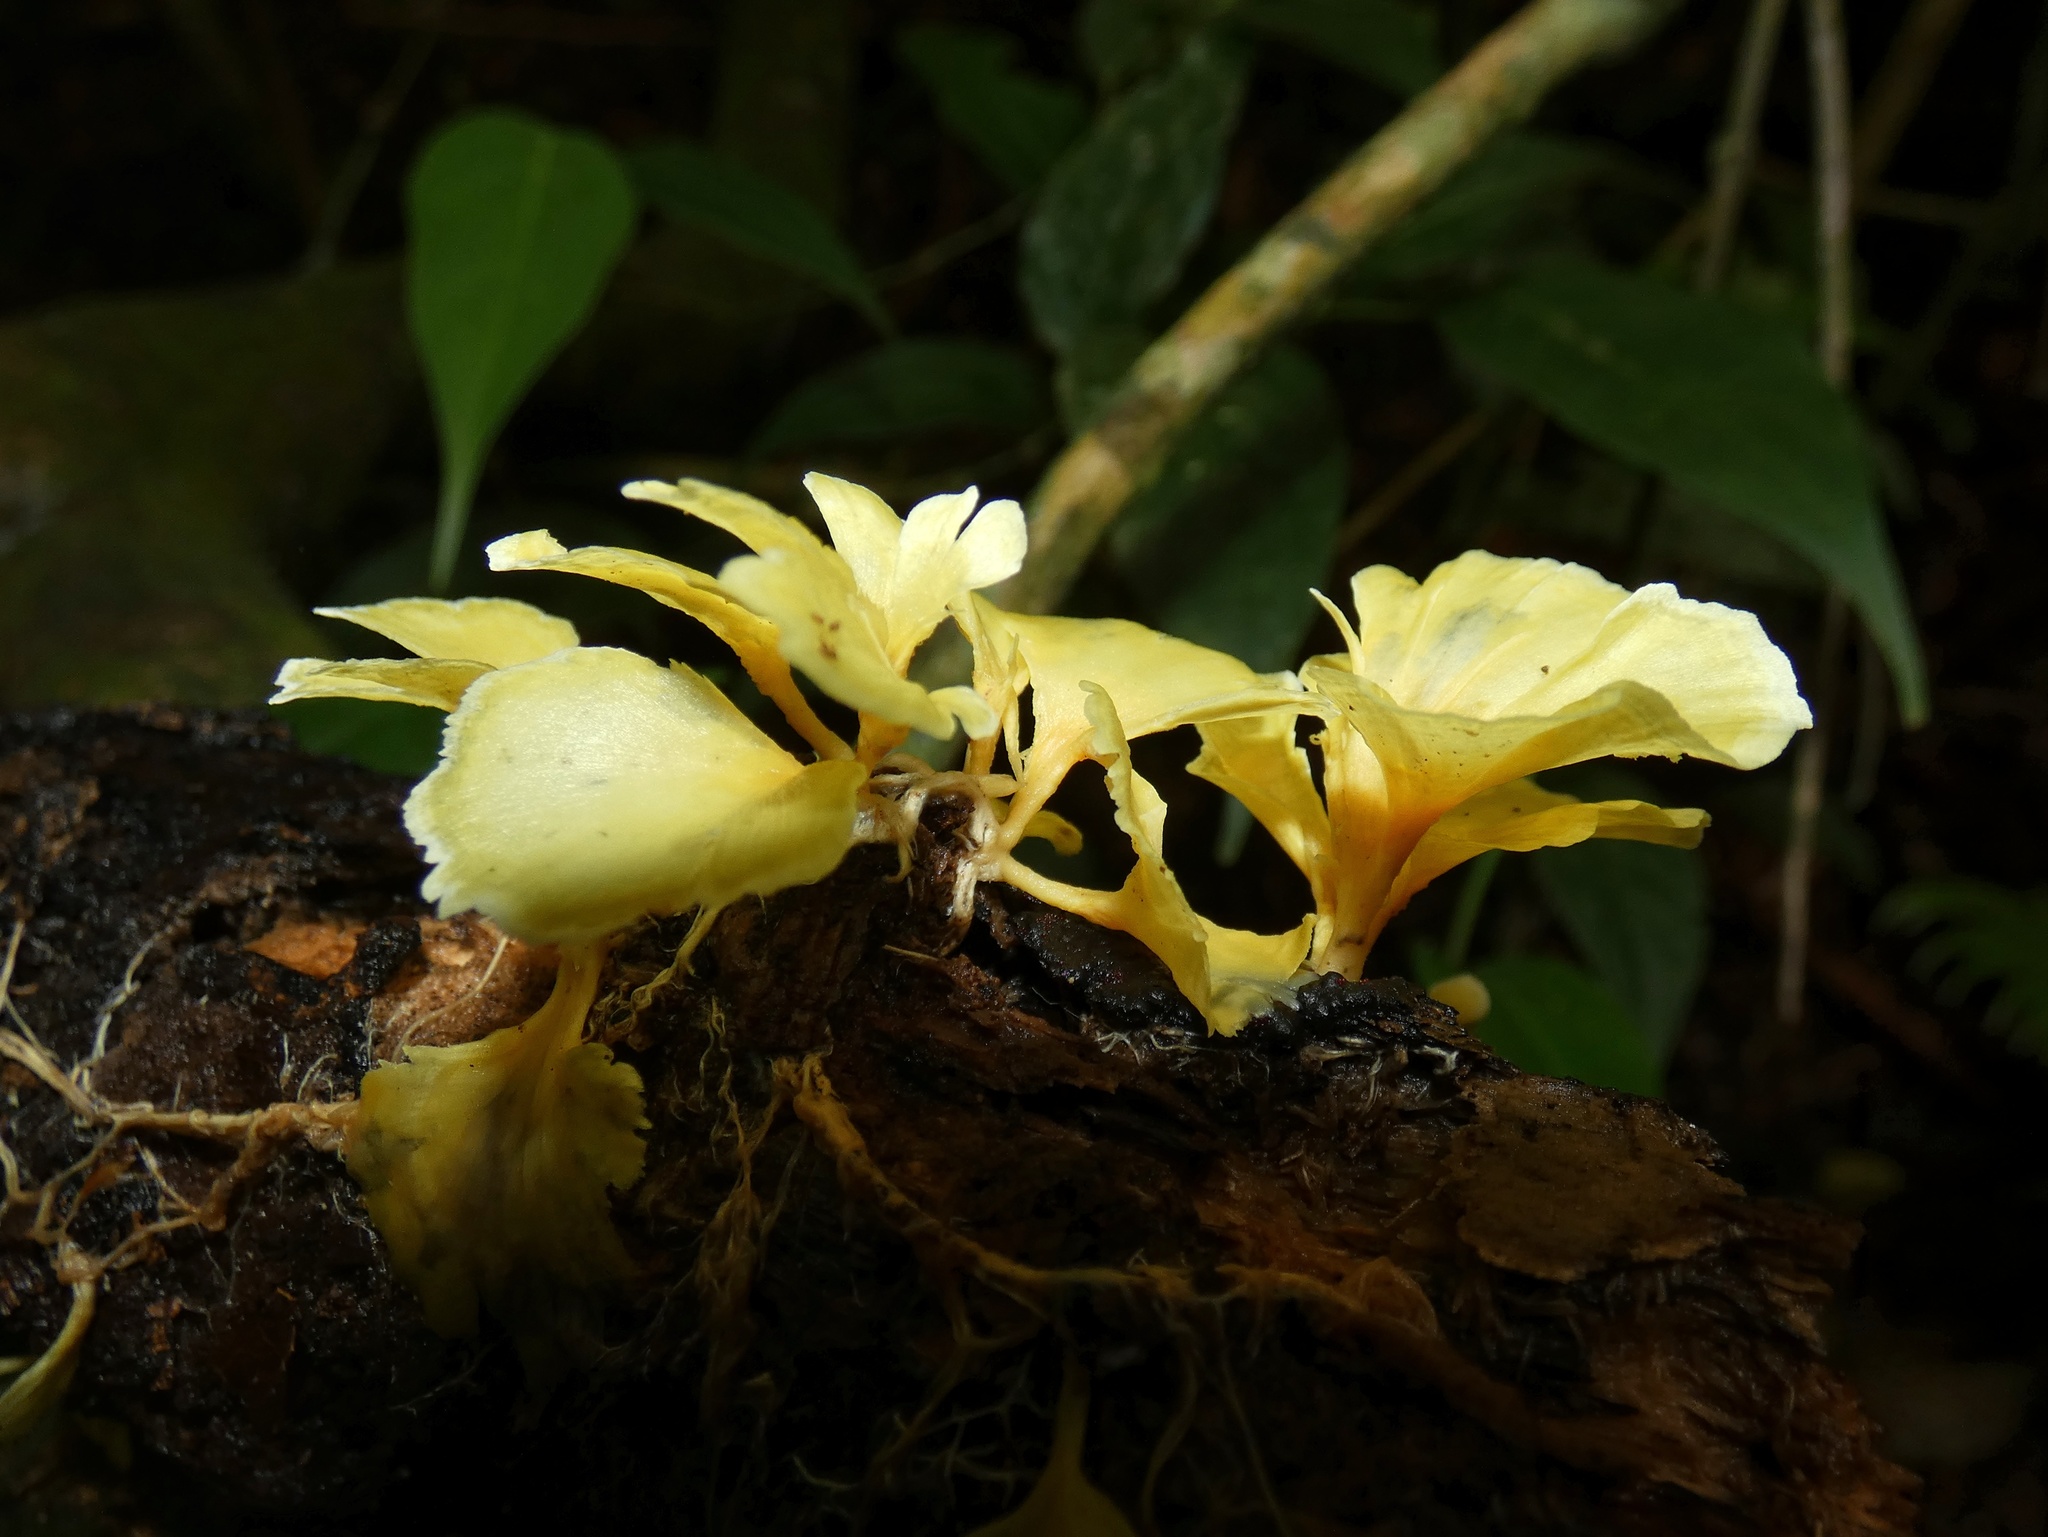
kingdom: Fungi
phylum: Basidiomycota
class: Agaricomycetes
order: Hymenochaetales
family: Rickenellaceae
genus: Cotylidia
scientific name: Cotylidia aurantiaca
